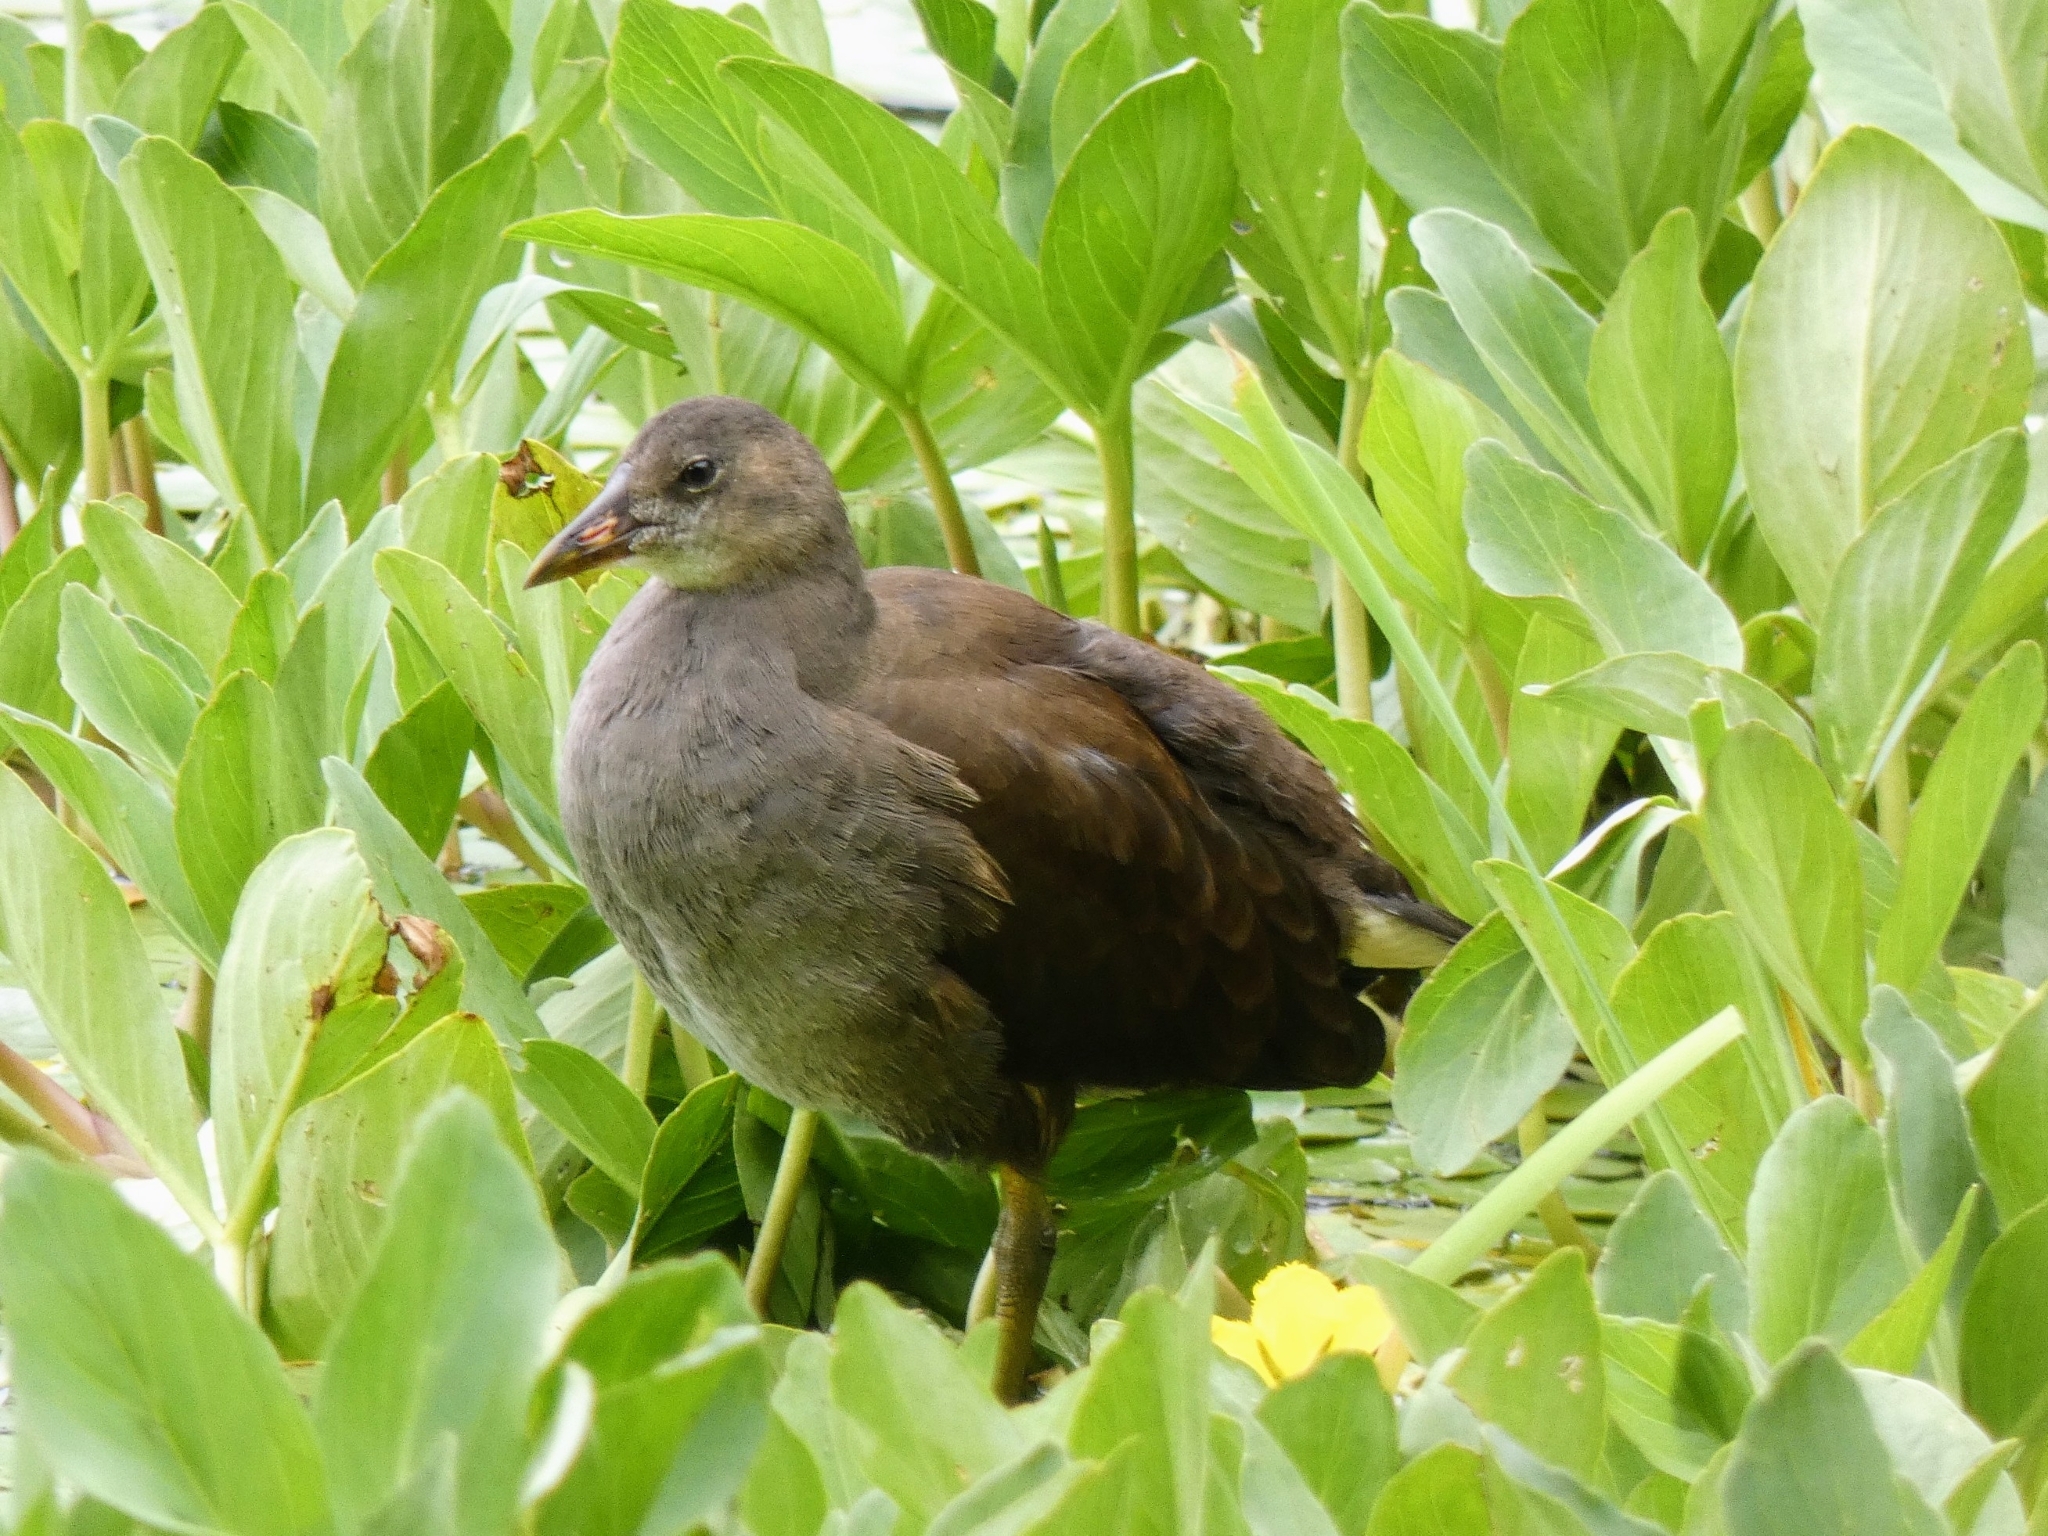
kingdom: Animalia
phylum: Chordata
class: Aves
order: Gruiformes
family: Rallidae
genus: Gallinula
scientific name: Gallinula chloropus
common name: Common moorhen
